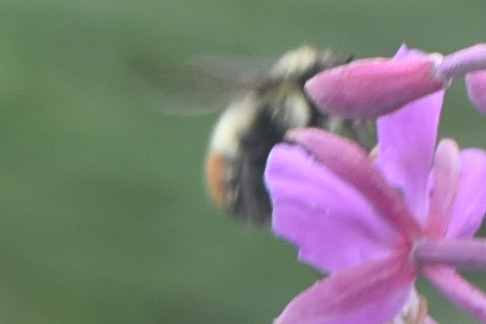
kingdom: Animalia
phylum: Arthropoda
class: Insecta
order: Hymenoptera
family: Apidae
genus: Bombus
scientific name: Bombus flavifrons
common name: Yellow head bumble bee
